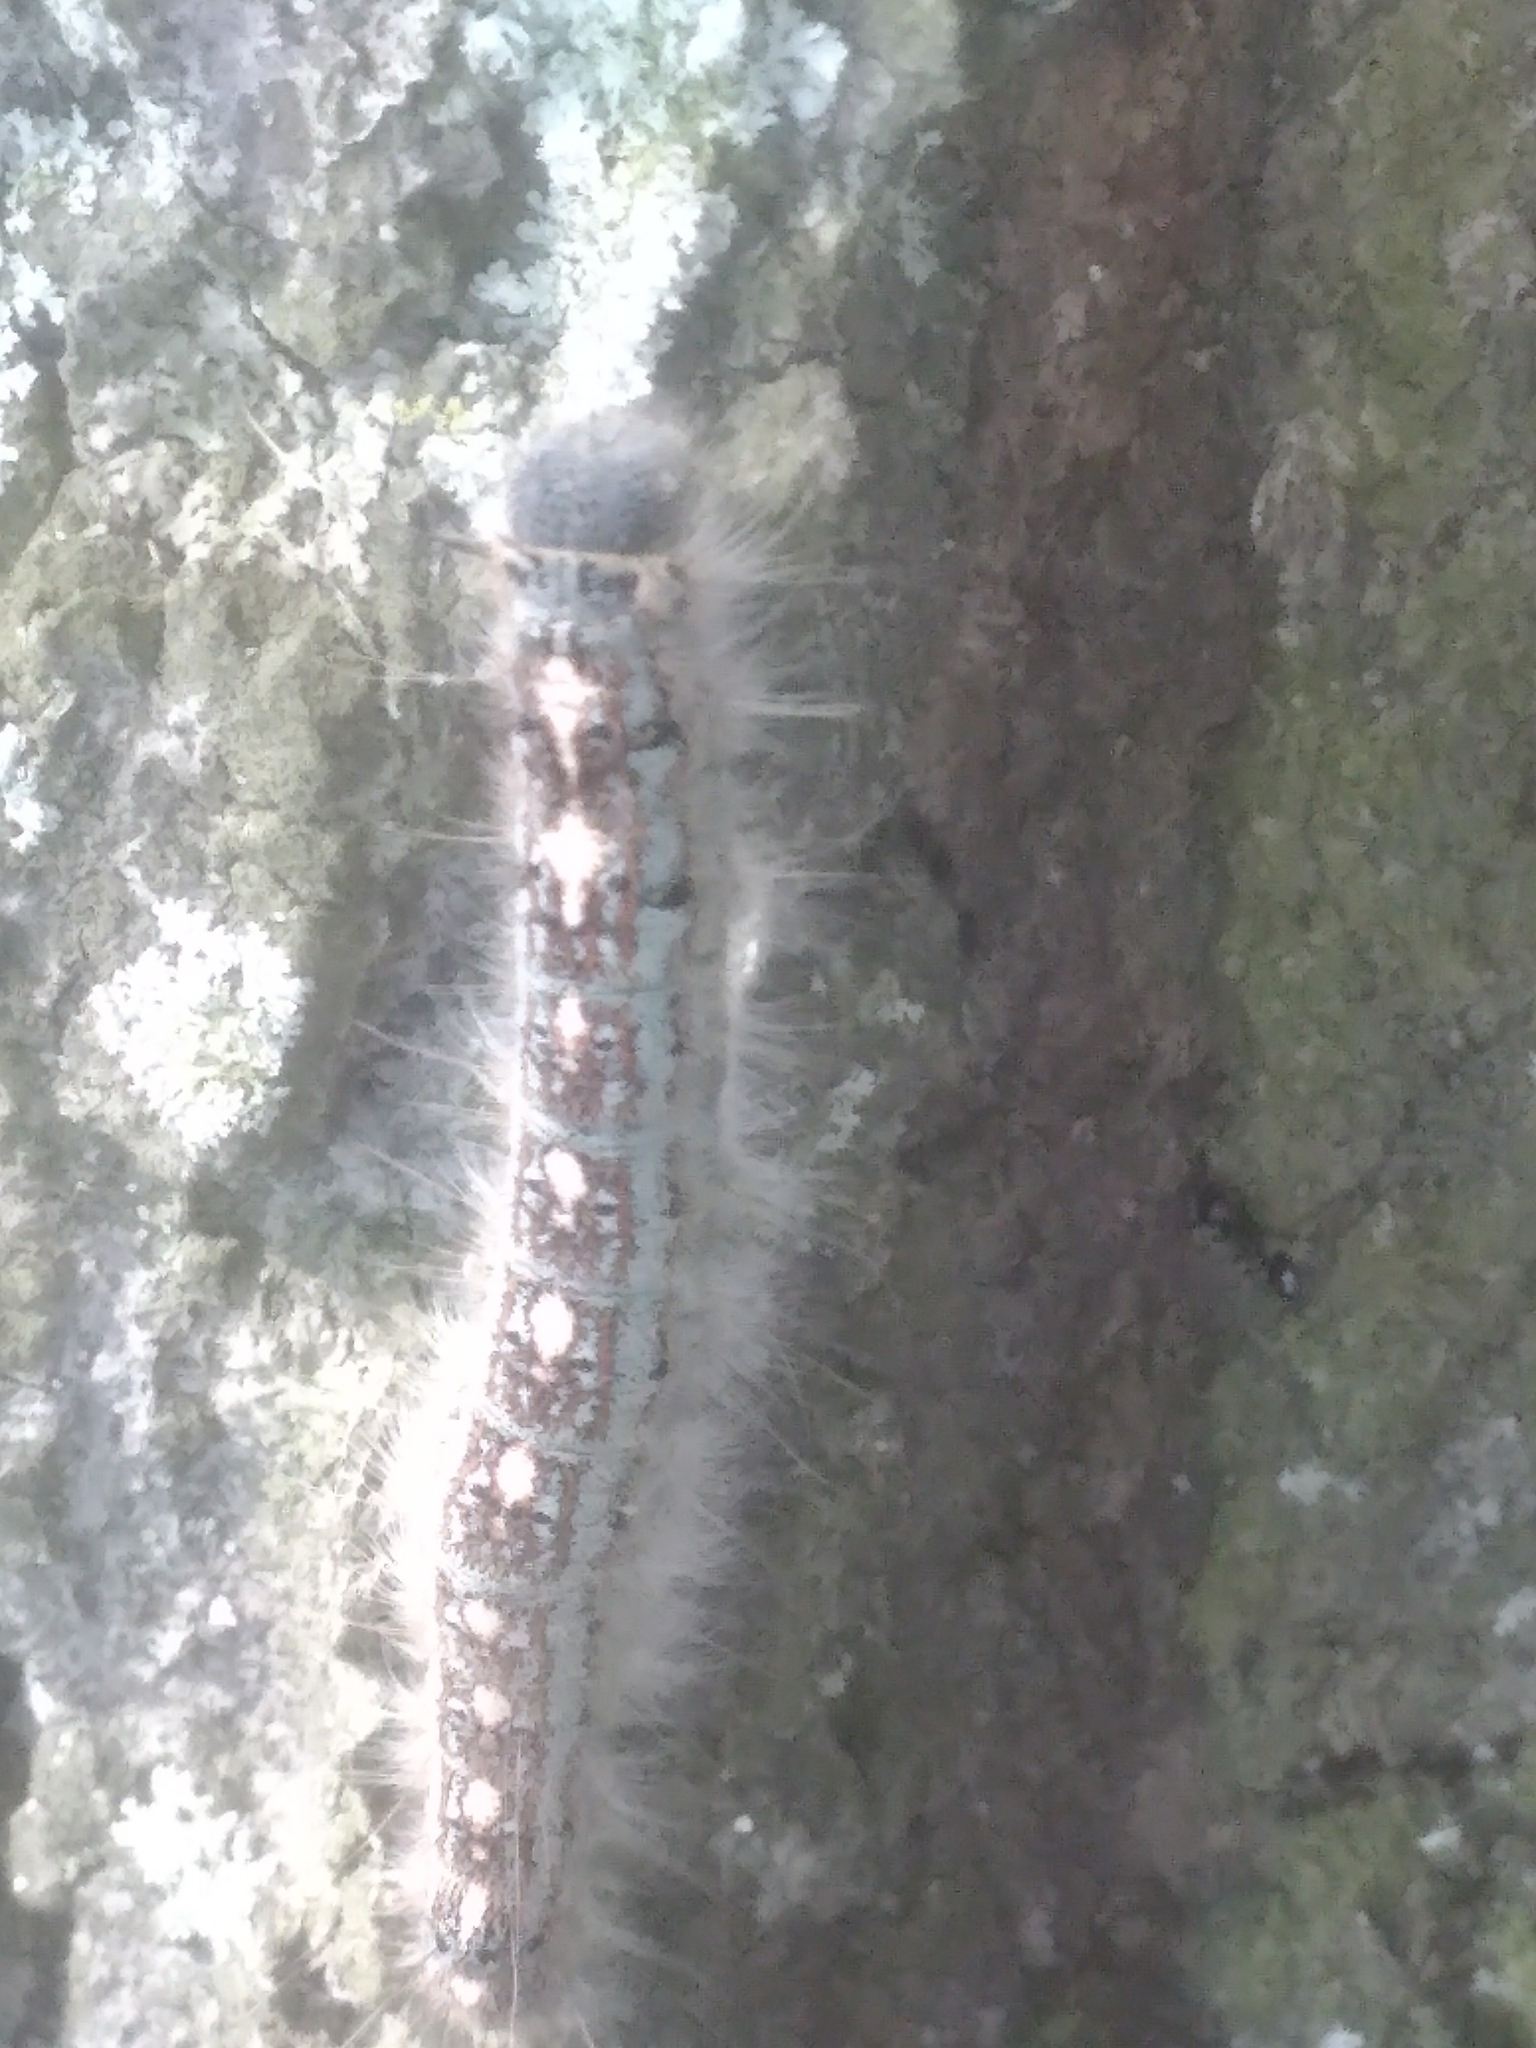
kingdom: Animalia
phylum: Arthropoda
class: Insecta
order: Lepidoptera
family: Lasiocampidae
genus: Malacosoma
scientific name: Malacosoma disstria
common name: Forest tent caterpillar
